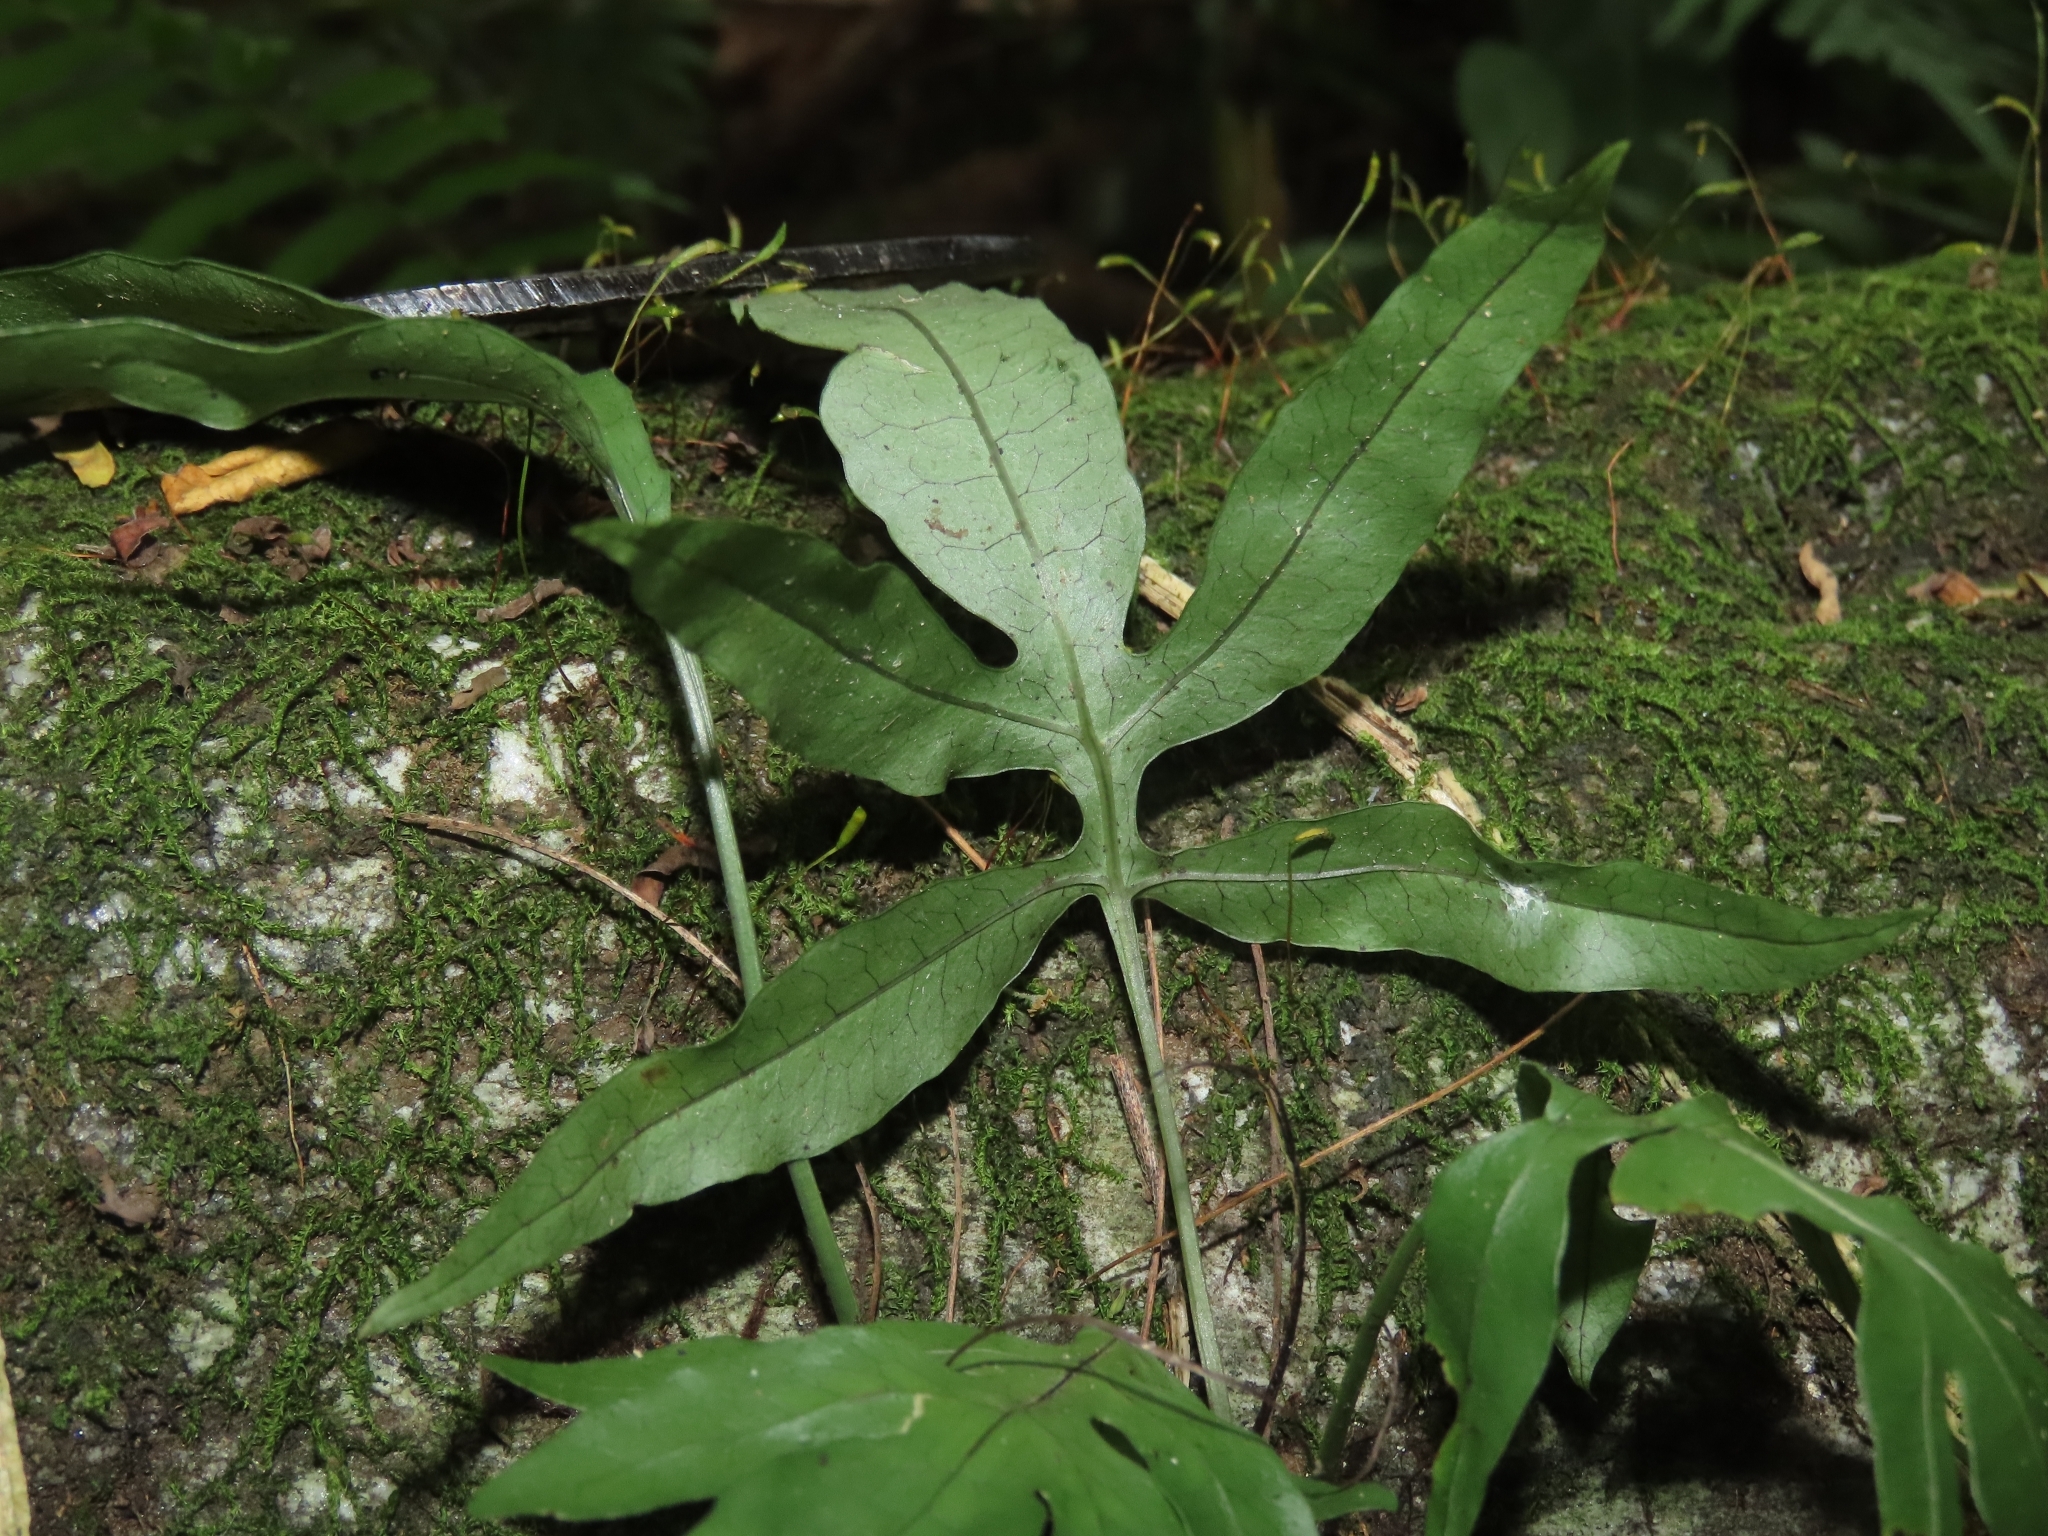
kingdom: Plantae
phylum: Tracheophyta
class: Polypodiopsida
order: Polypodiales
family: Polypodiaceae
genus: Leptochilus
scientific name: Leptochilus ellipticus
